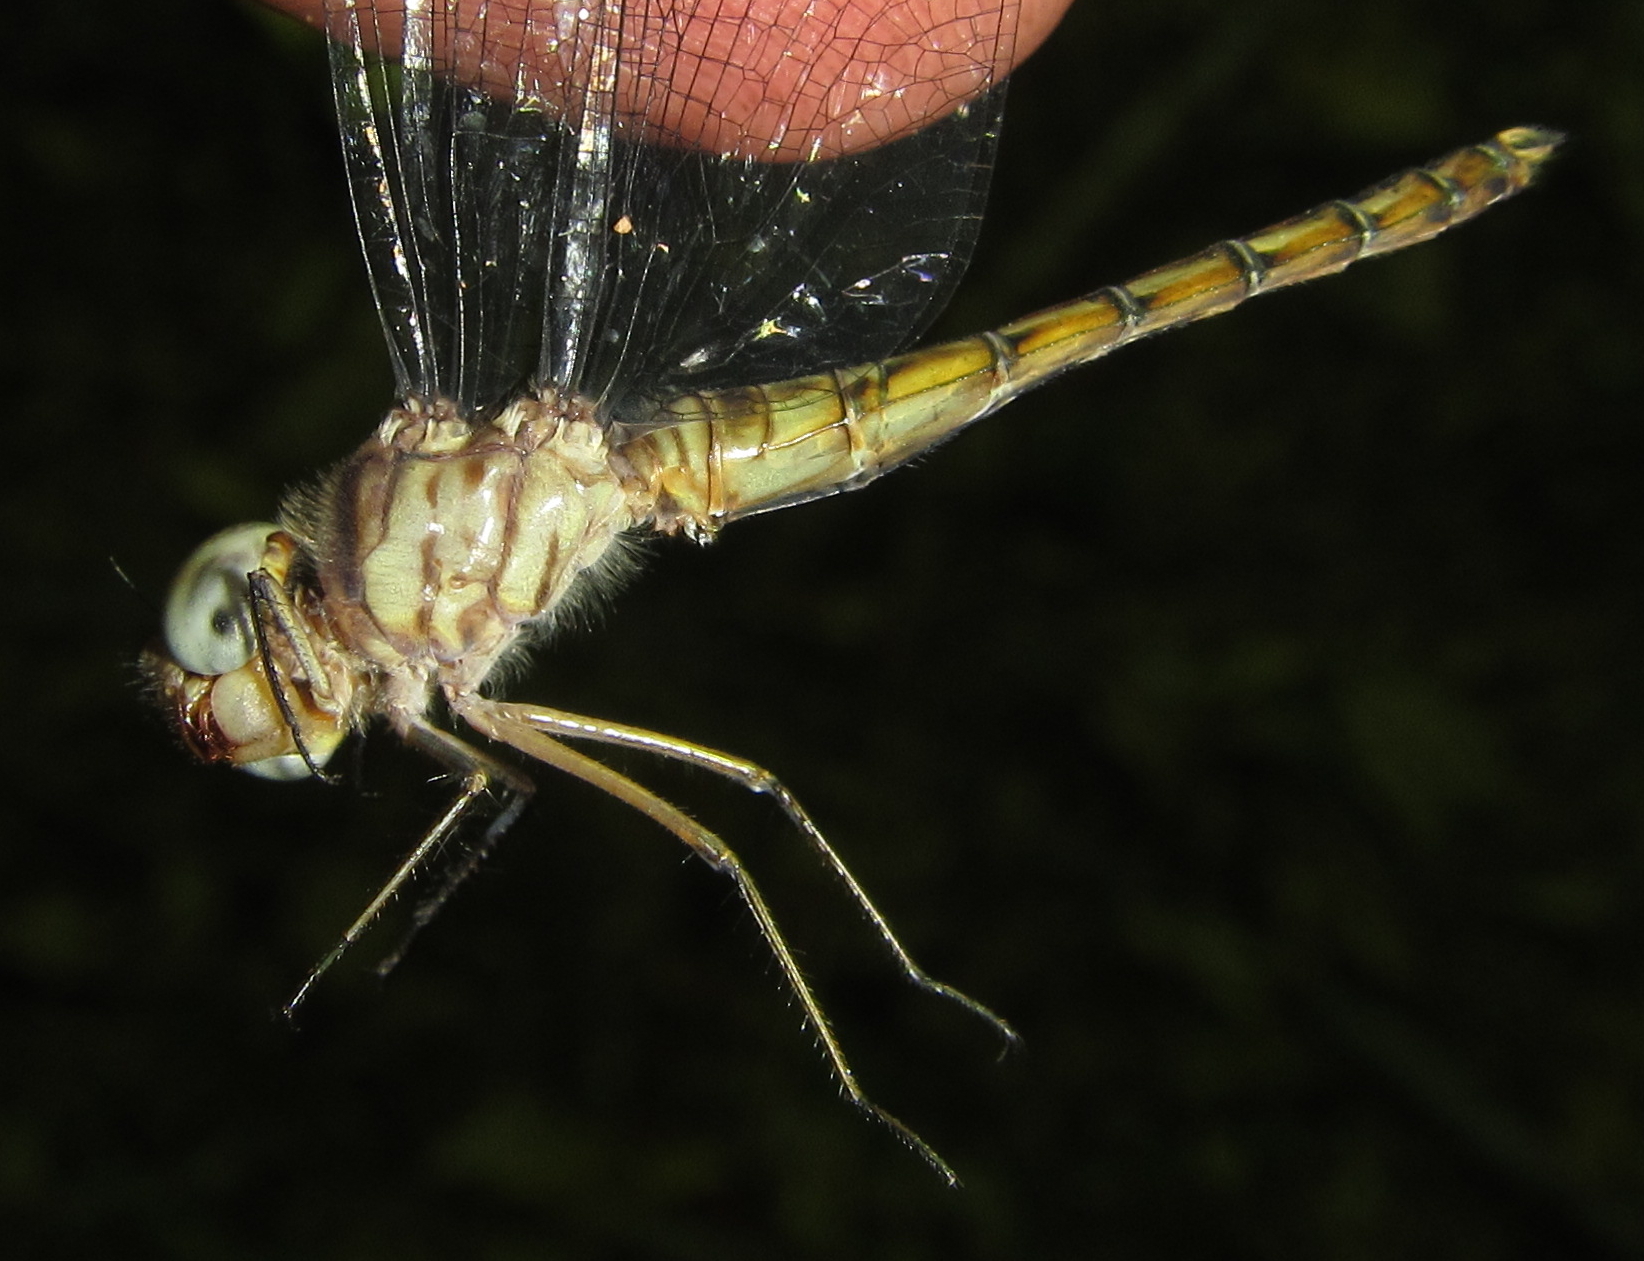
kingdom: Animalia
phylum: Arthropoda
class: Insecta
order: Odonata
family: Libellulidae
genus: Parazyxomma
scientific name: Parazyxomma flavicans
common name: Banded duskdarter
